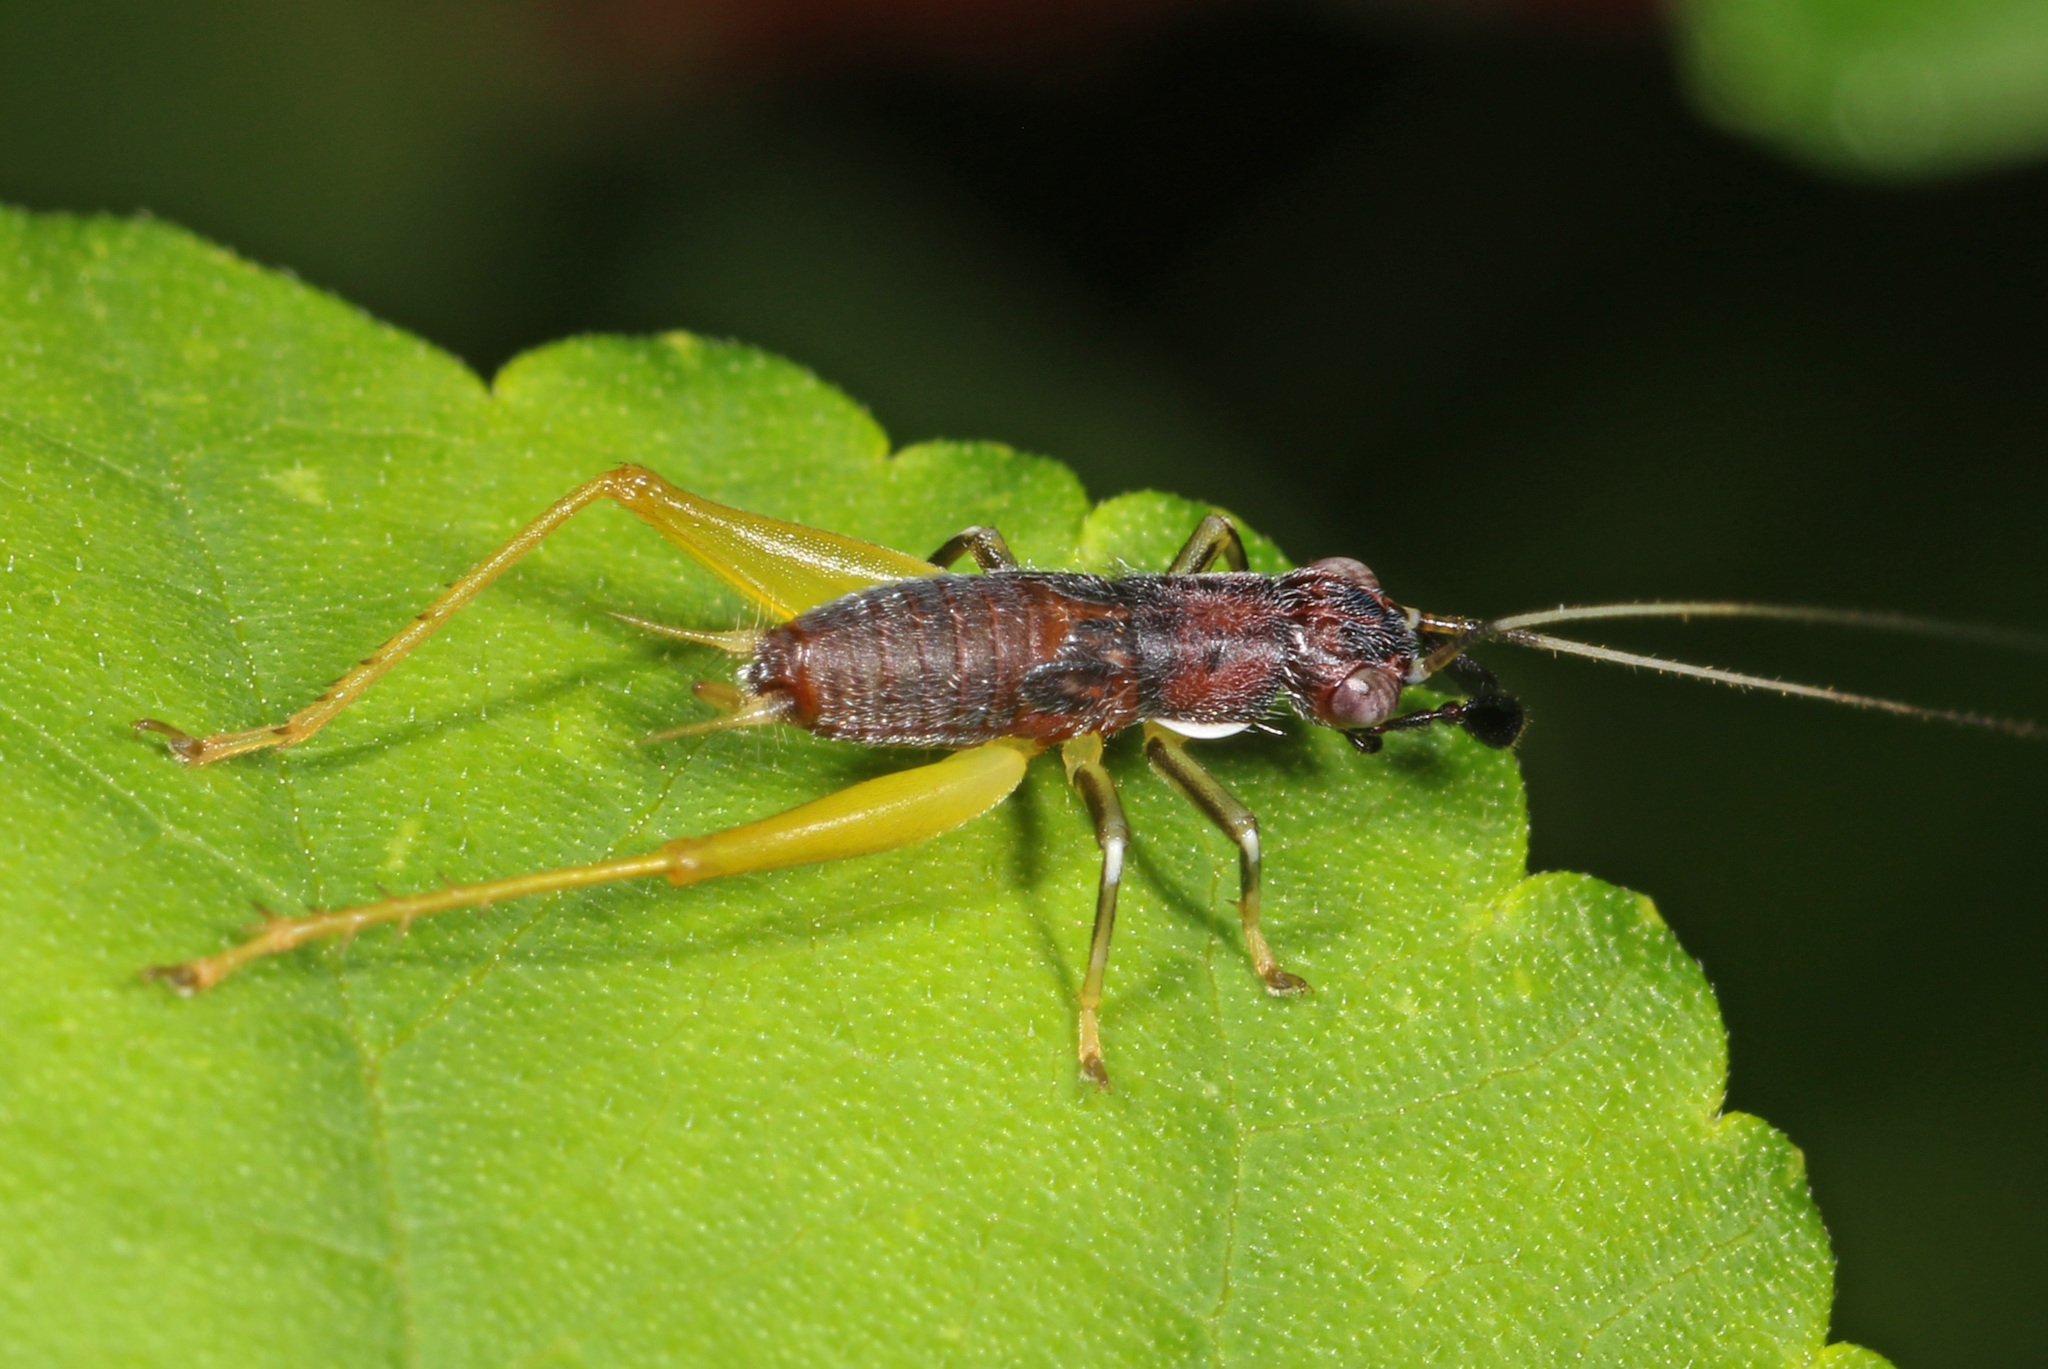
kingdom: Animalia
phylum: Arthropoda
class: Insecta
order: Orthoptera
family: Trigonidiidae
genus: Phyllopalpus
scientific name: Phyllopalpus pulchellus
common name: Handsome trig
